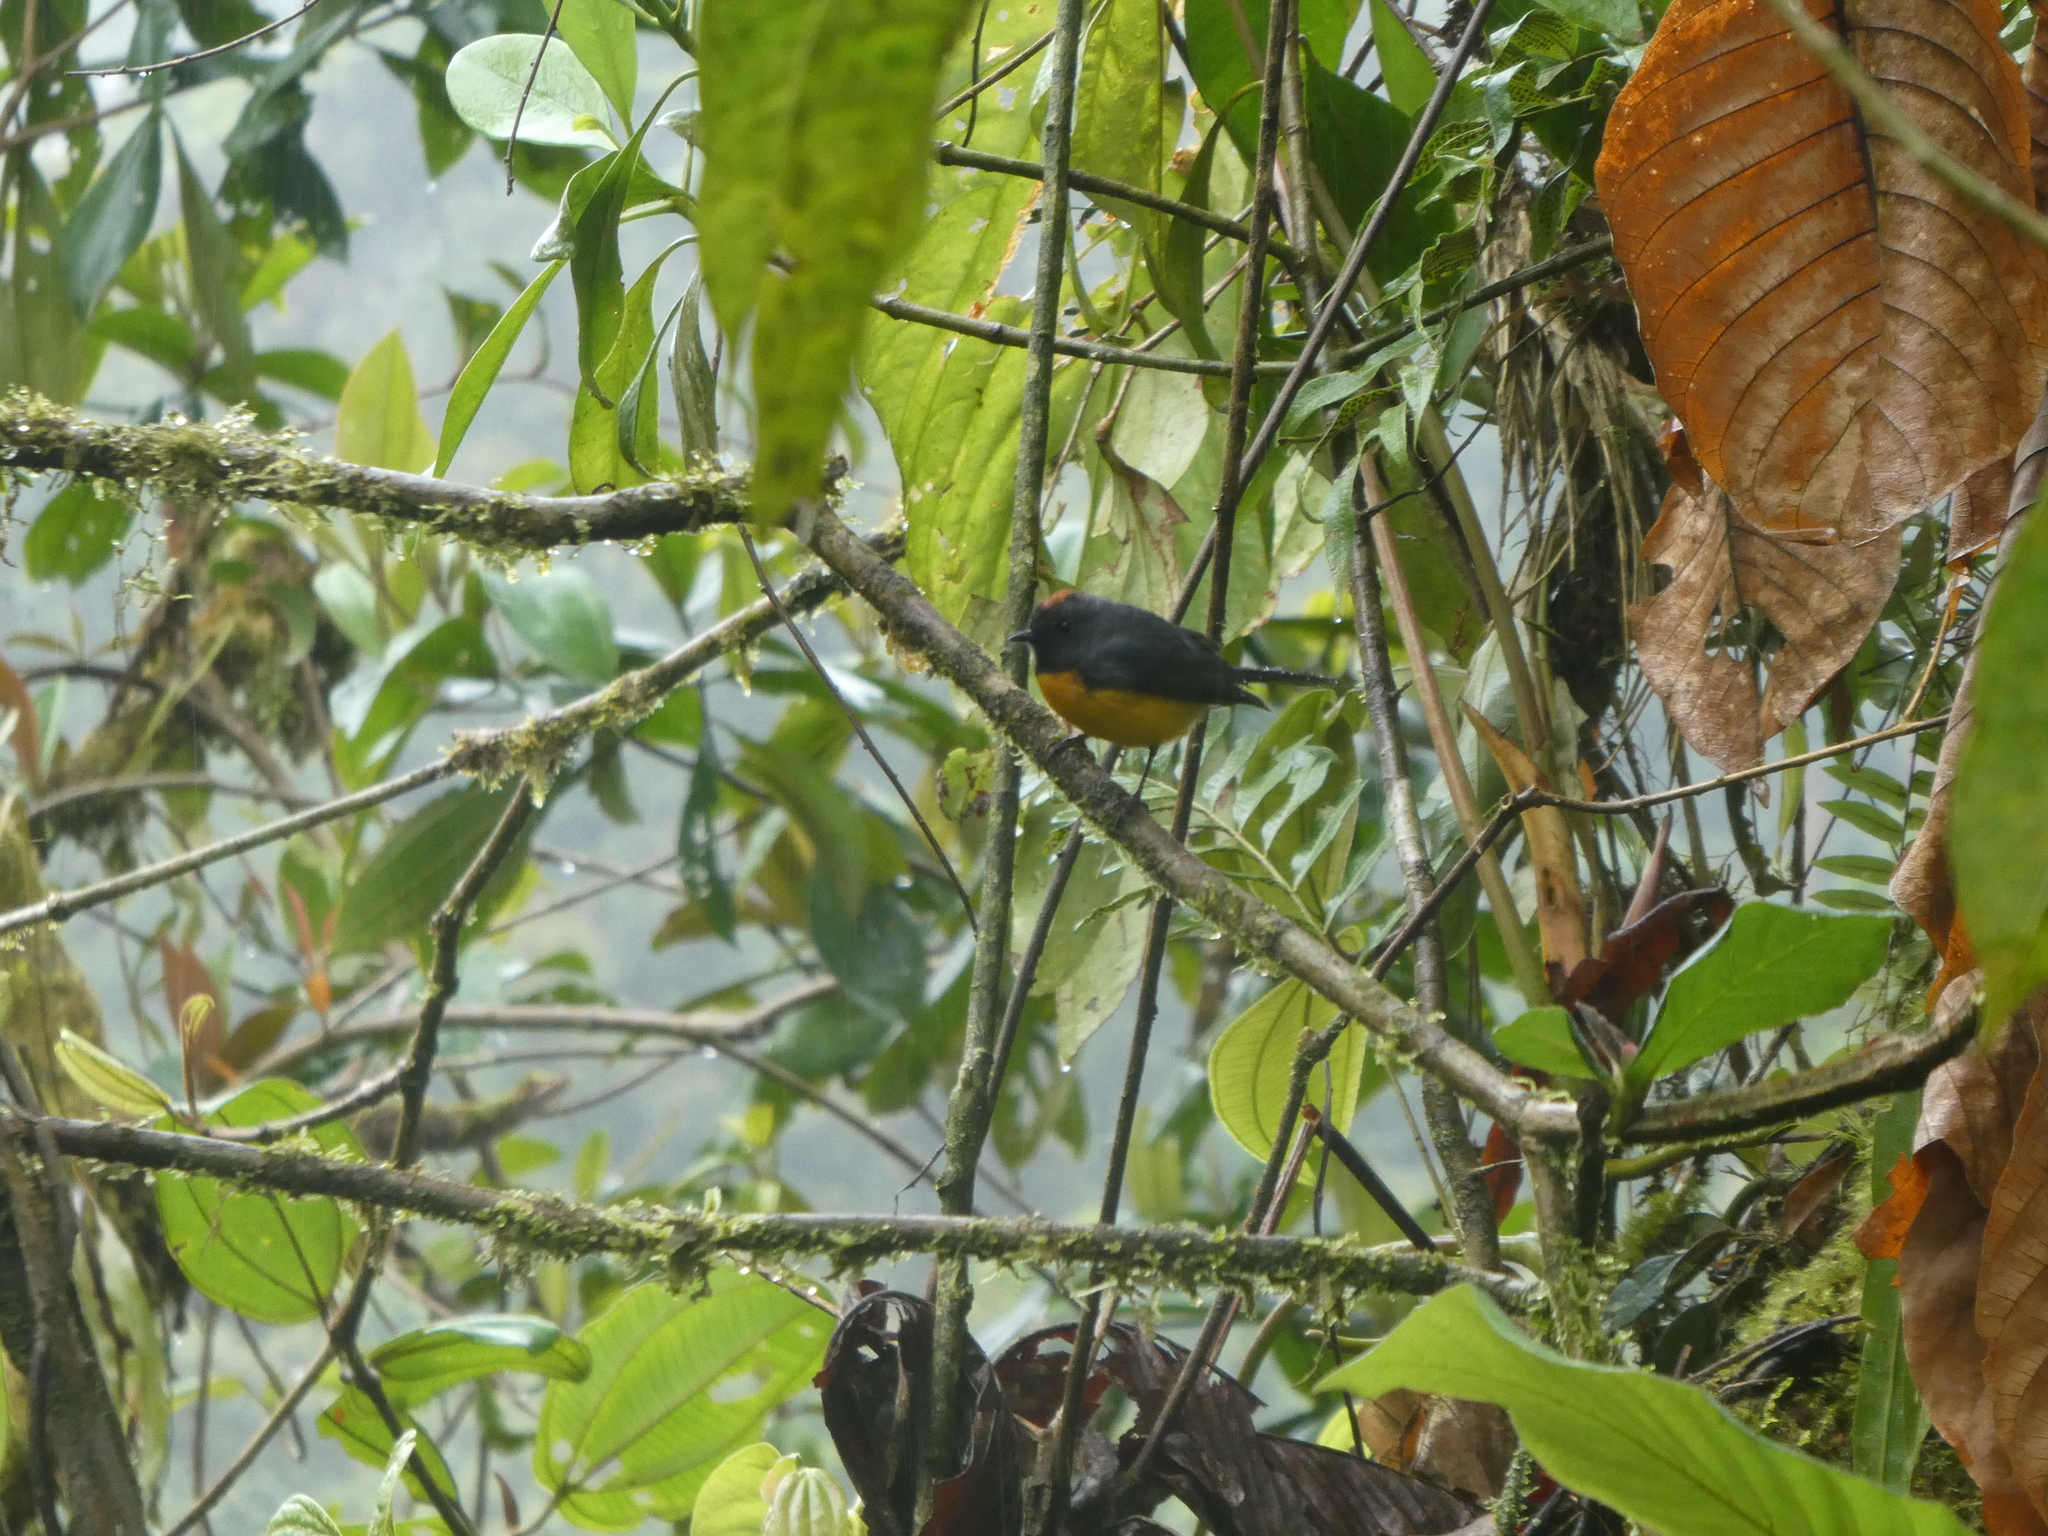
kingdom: Animalia
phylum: Chordata
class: Aves
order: Passeriformes
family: Parulidae
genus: Myioborus
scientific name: Myioborus miniatus
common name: Slate-throated redstart
